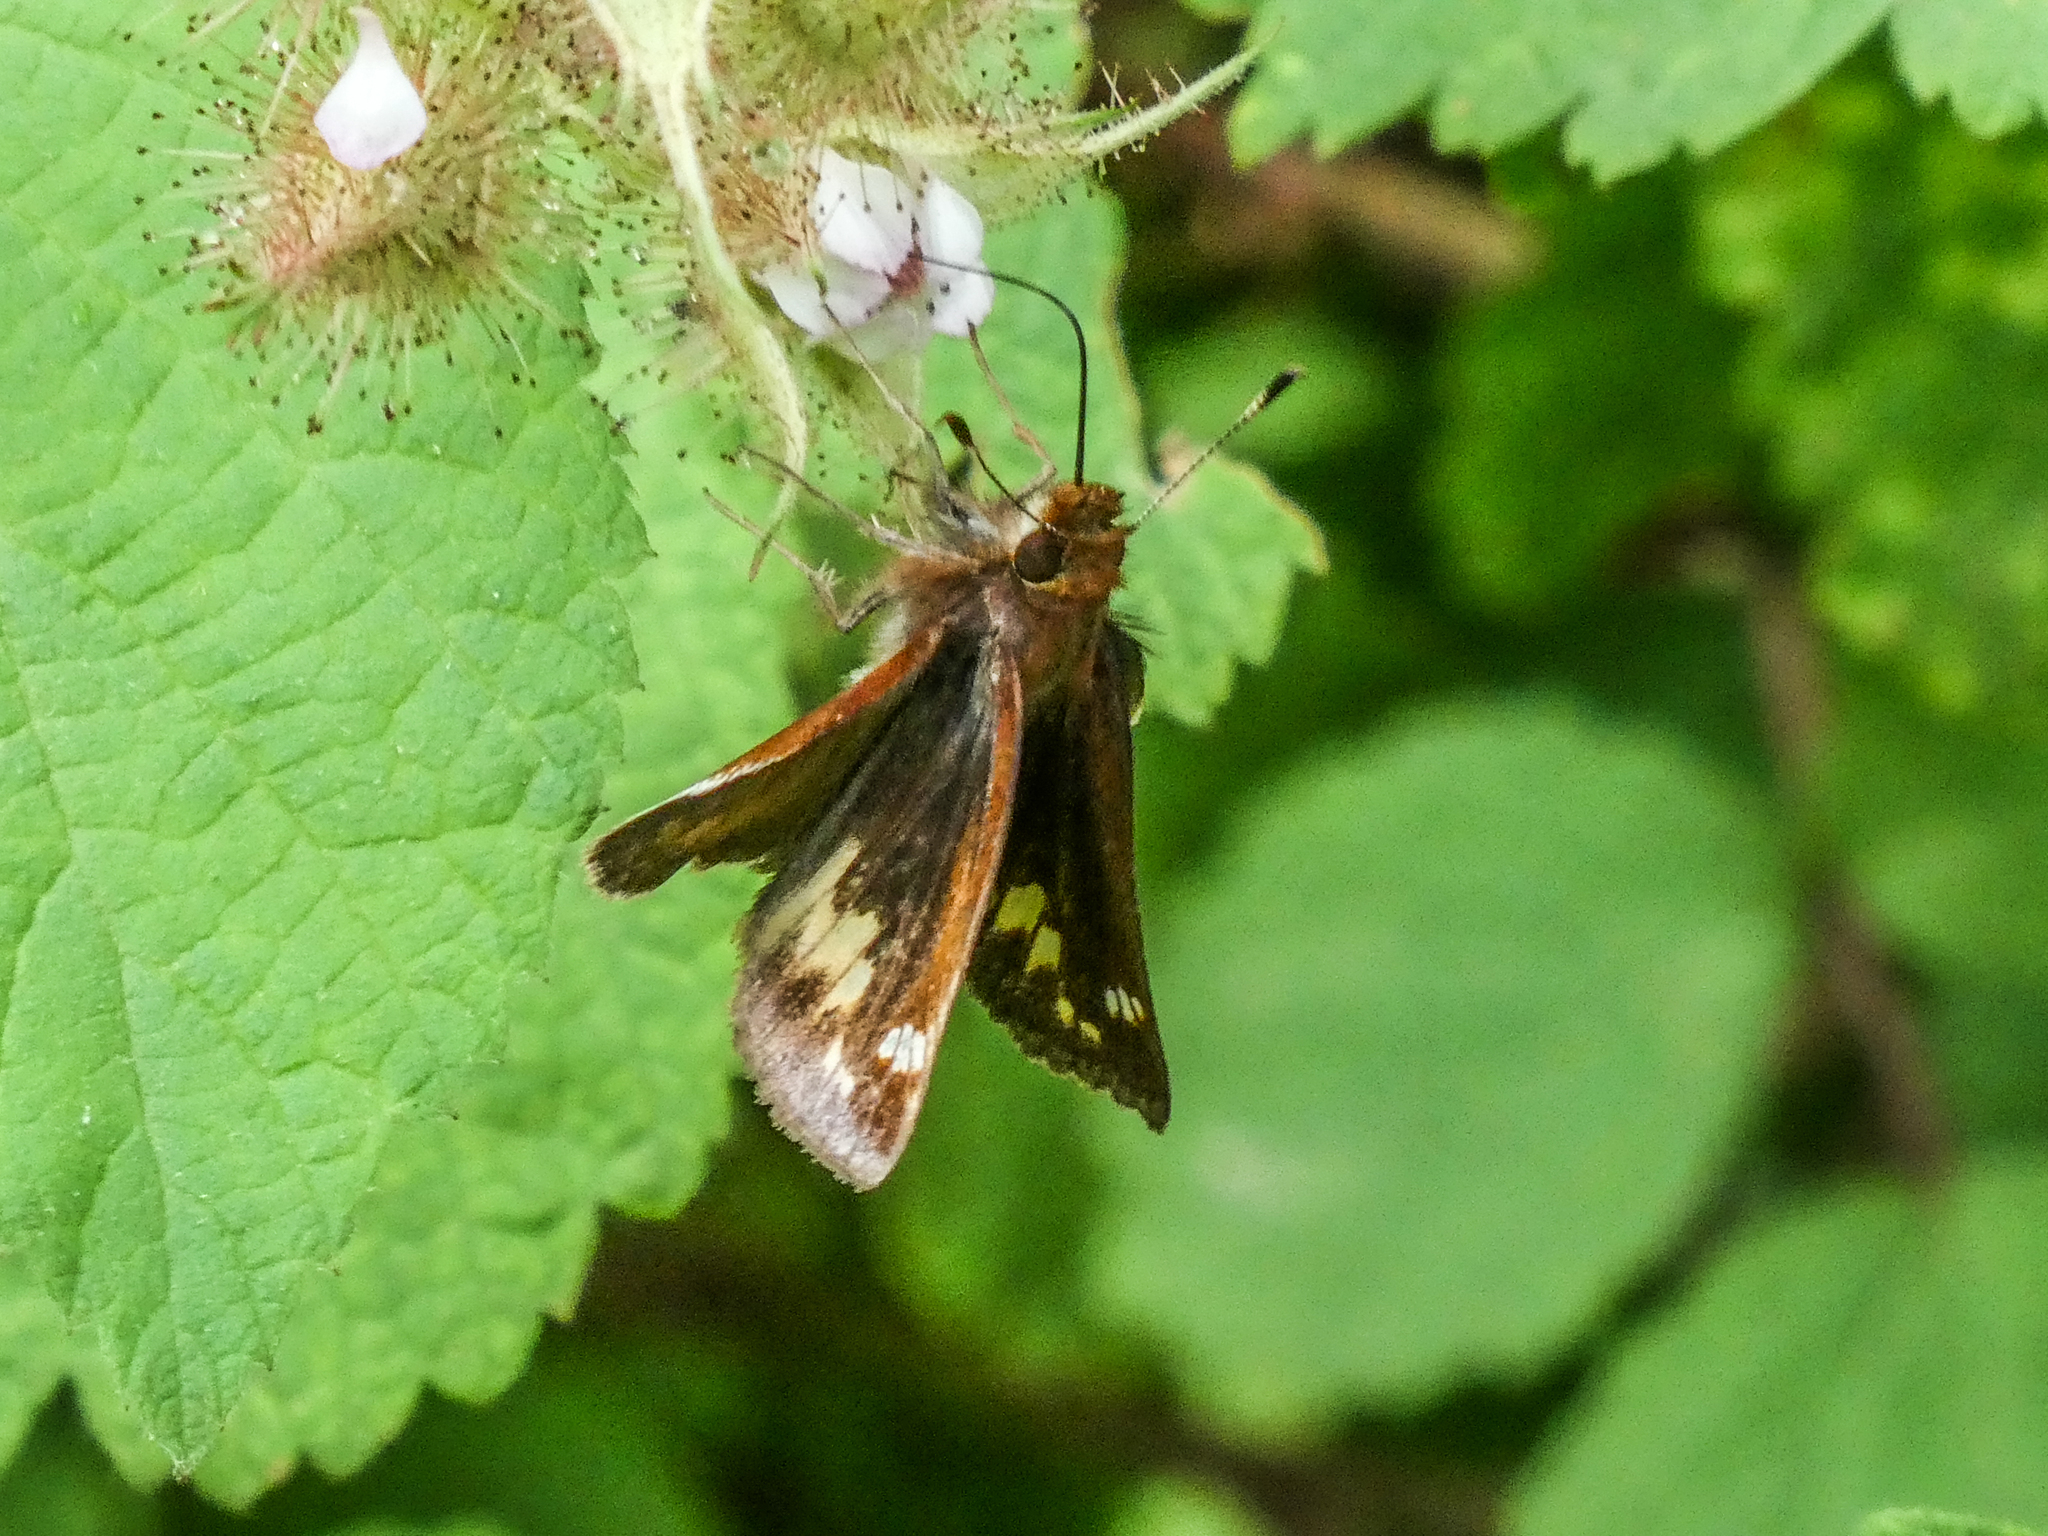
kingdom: Animalia
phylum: Arthropoda
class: Insecta
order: Lepidoptera
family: Hesperiidae
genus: Lon
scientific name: Lon zabulon
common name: Zabulon skipper
